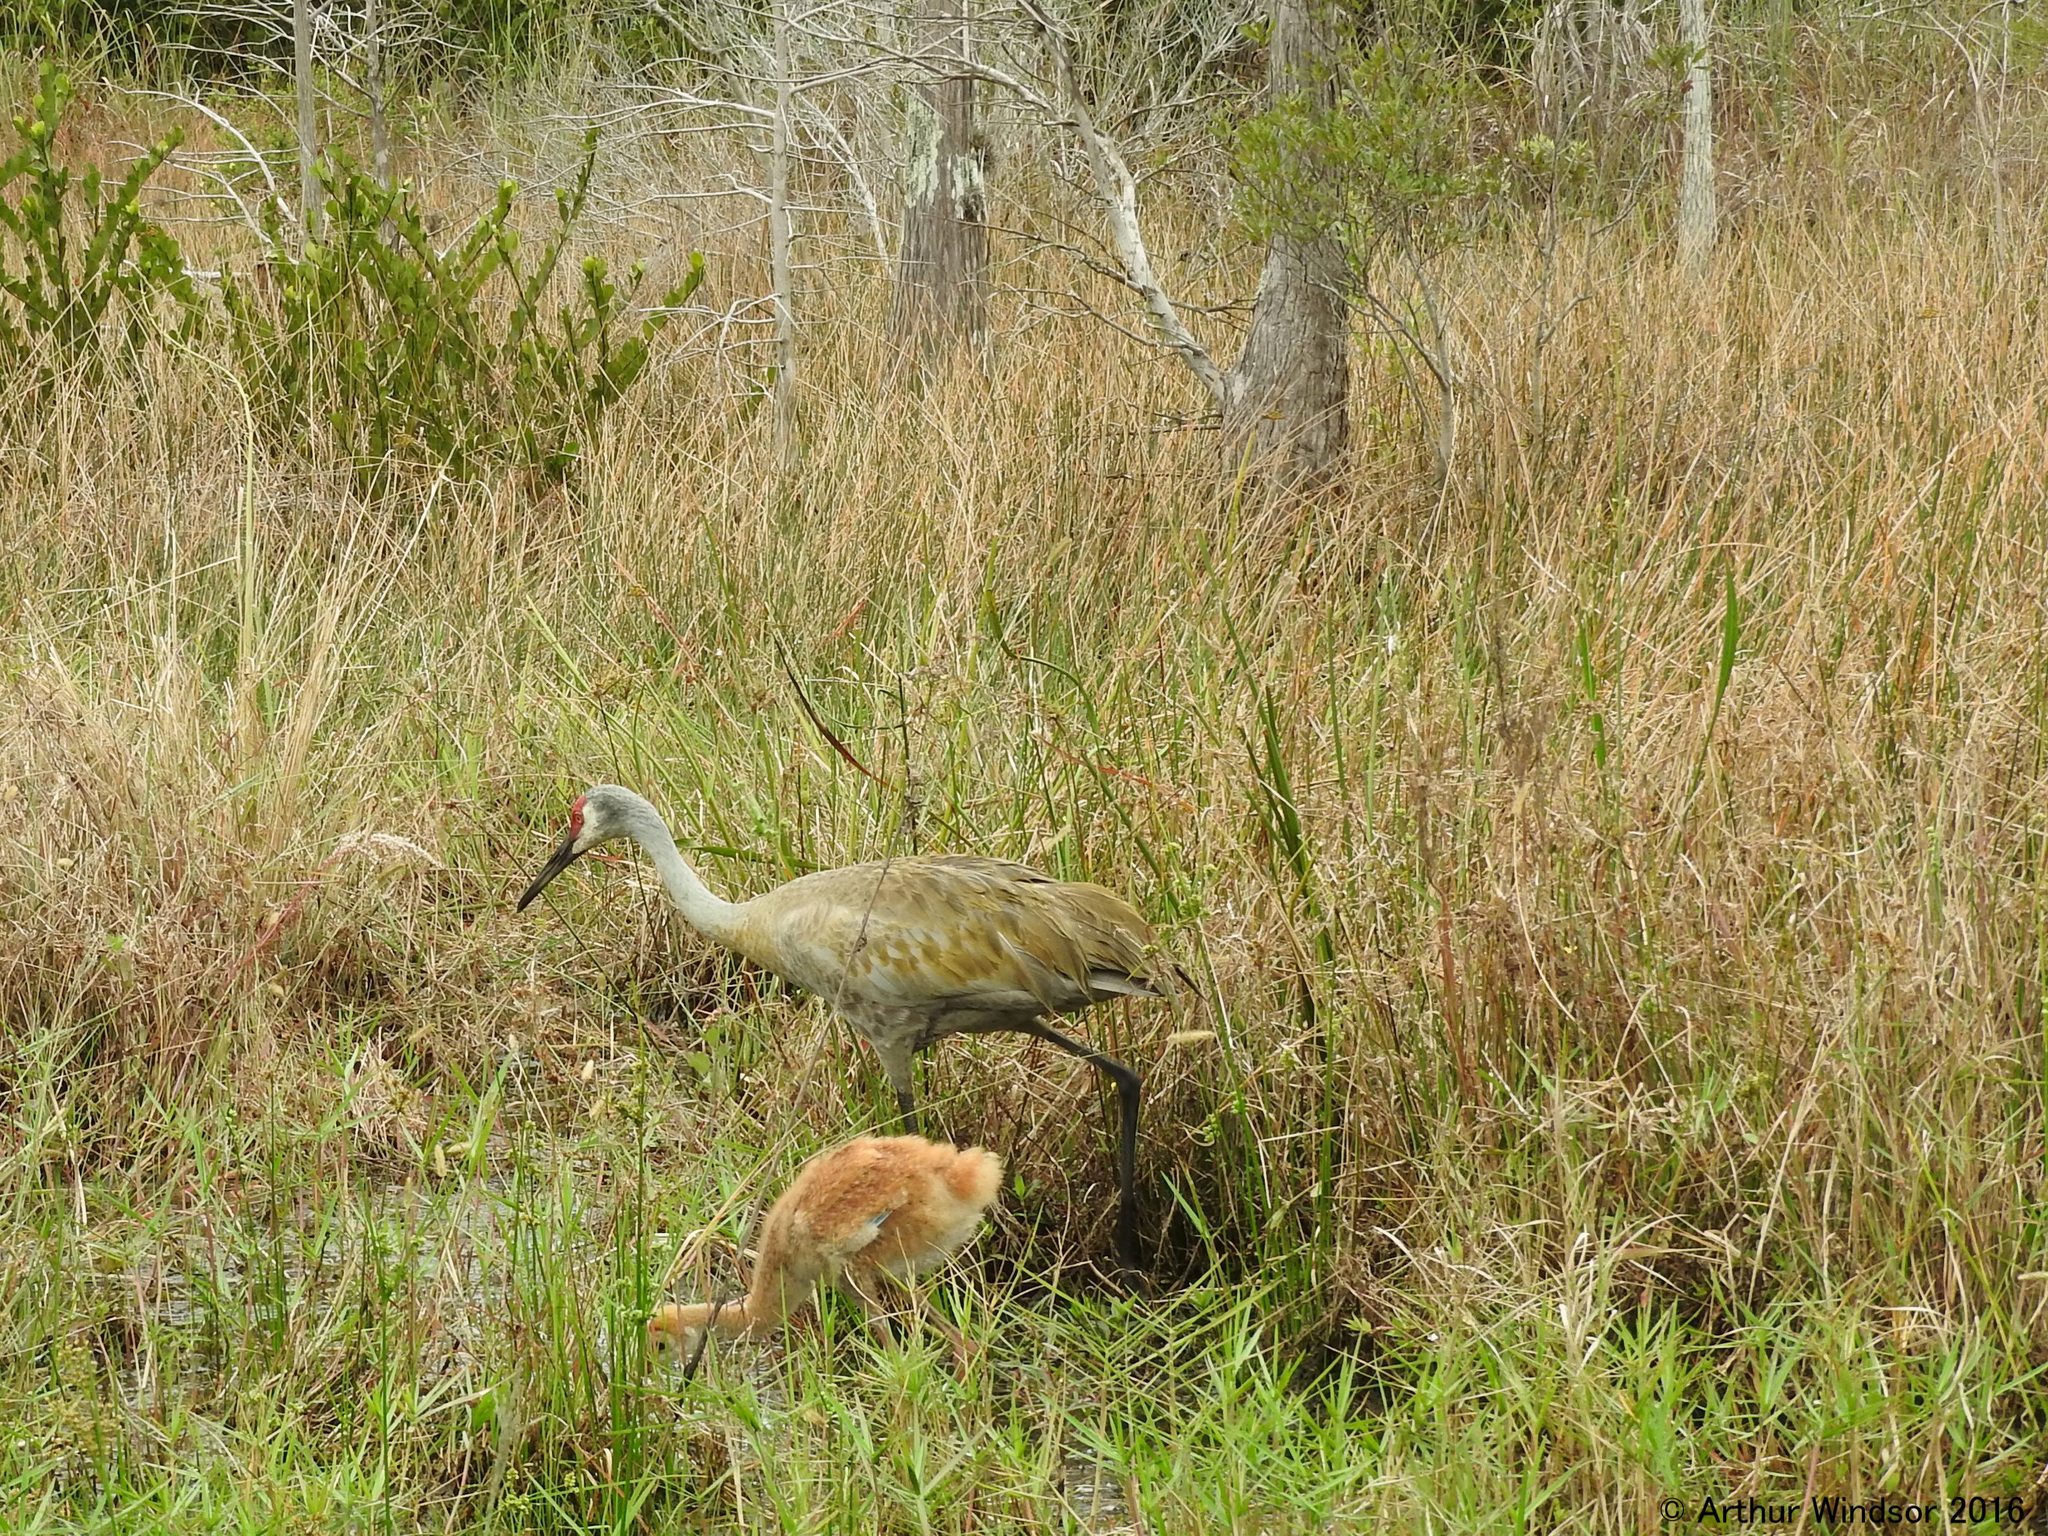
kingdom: Animalia
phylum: Chordata
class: Aves
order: Gruiformes
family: Gruidae
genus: Grus
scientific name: Grus canadensis
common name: Sandhill crane
